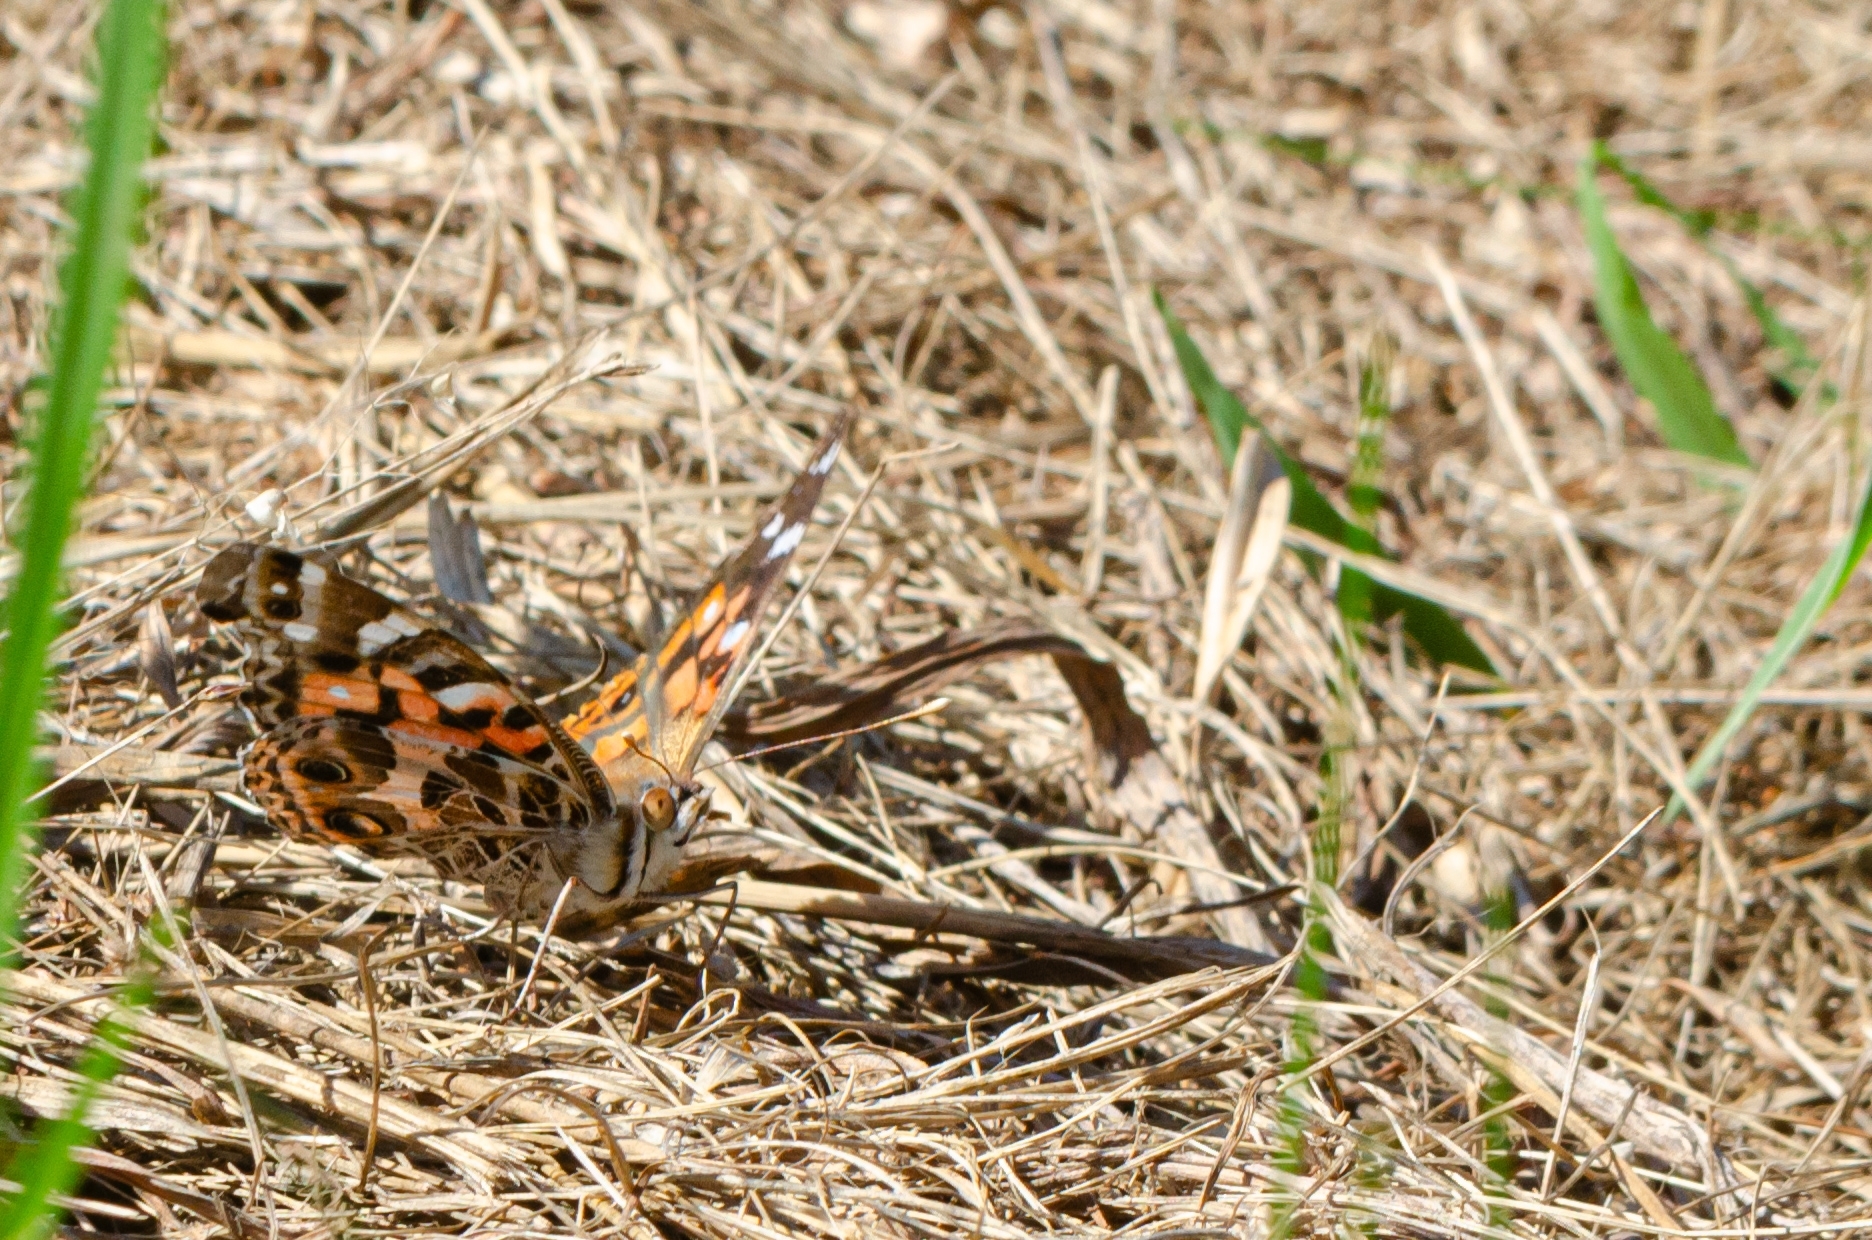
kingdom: Animalia
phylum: Arthropoda
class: Insecta
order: Lepidoptera
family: Nymphalidae
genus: Vanessa
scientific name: Vanessa braziliensis
